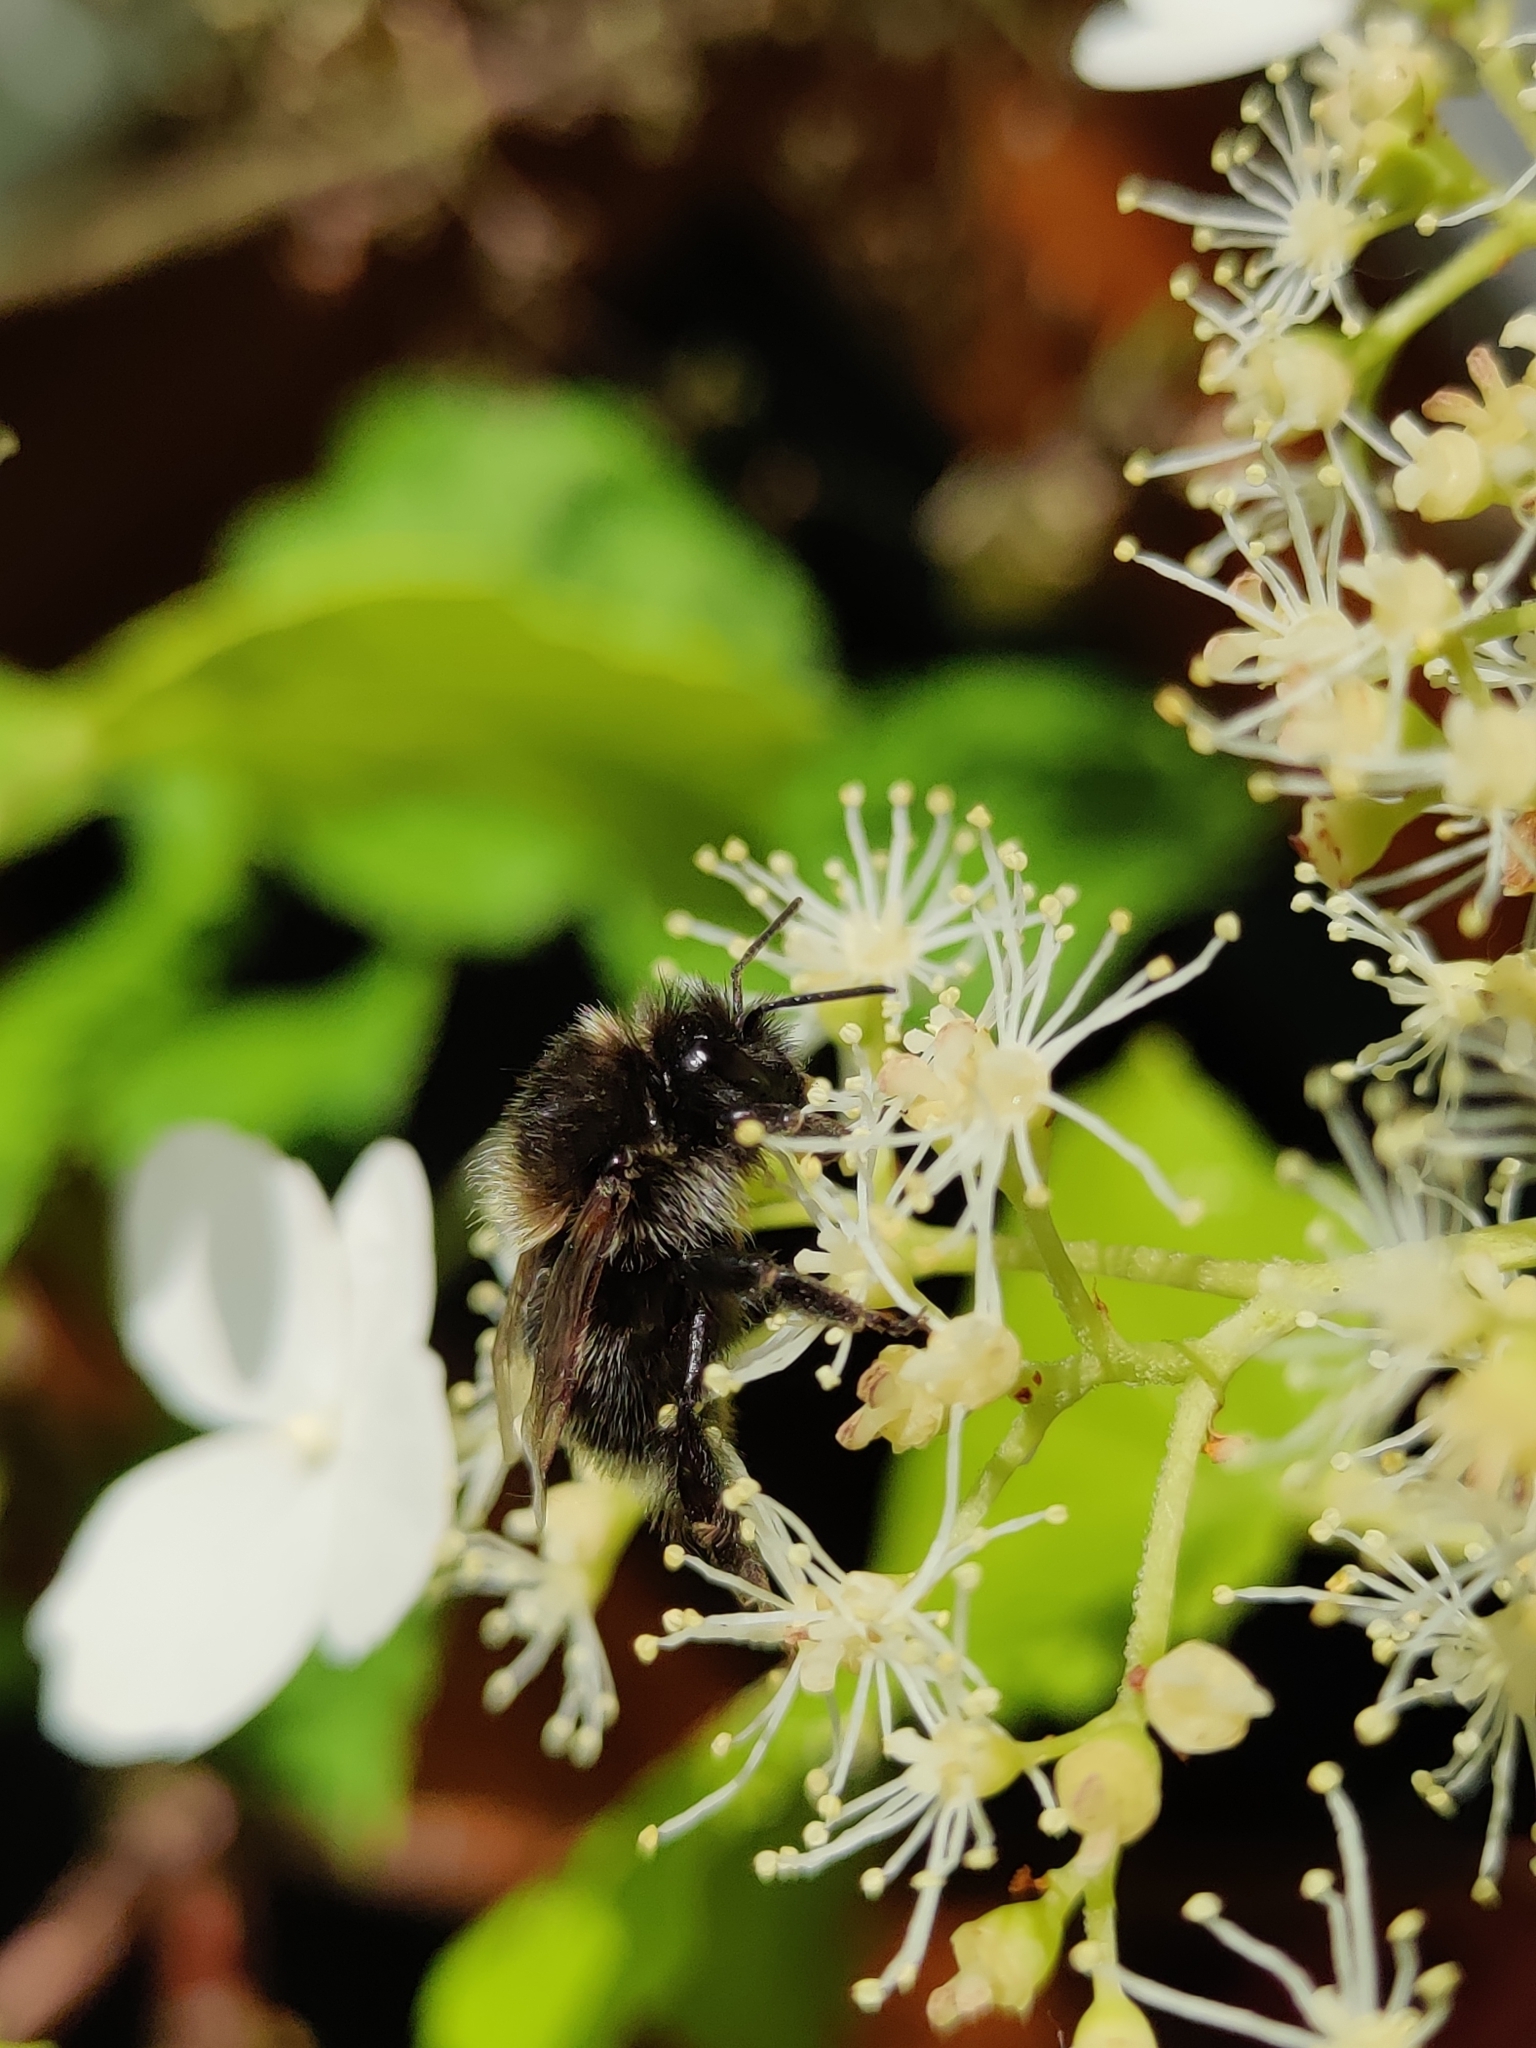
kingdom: Animalia
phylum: Arthropoda
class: Insecta
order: Hymenoptera
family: Apidae
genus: Bombus
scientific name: Bombus hypnorum
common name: New garden bumblebee
